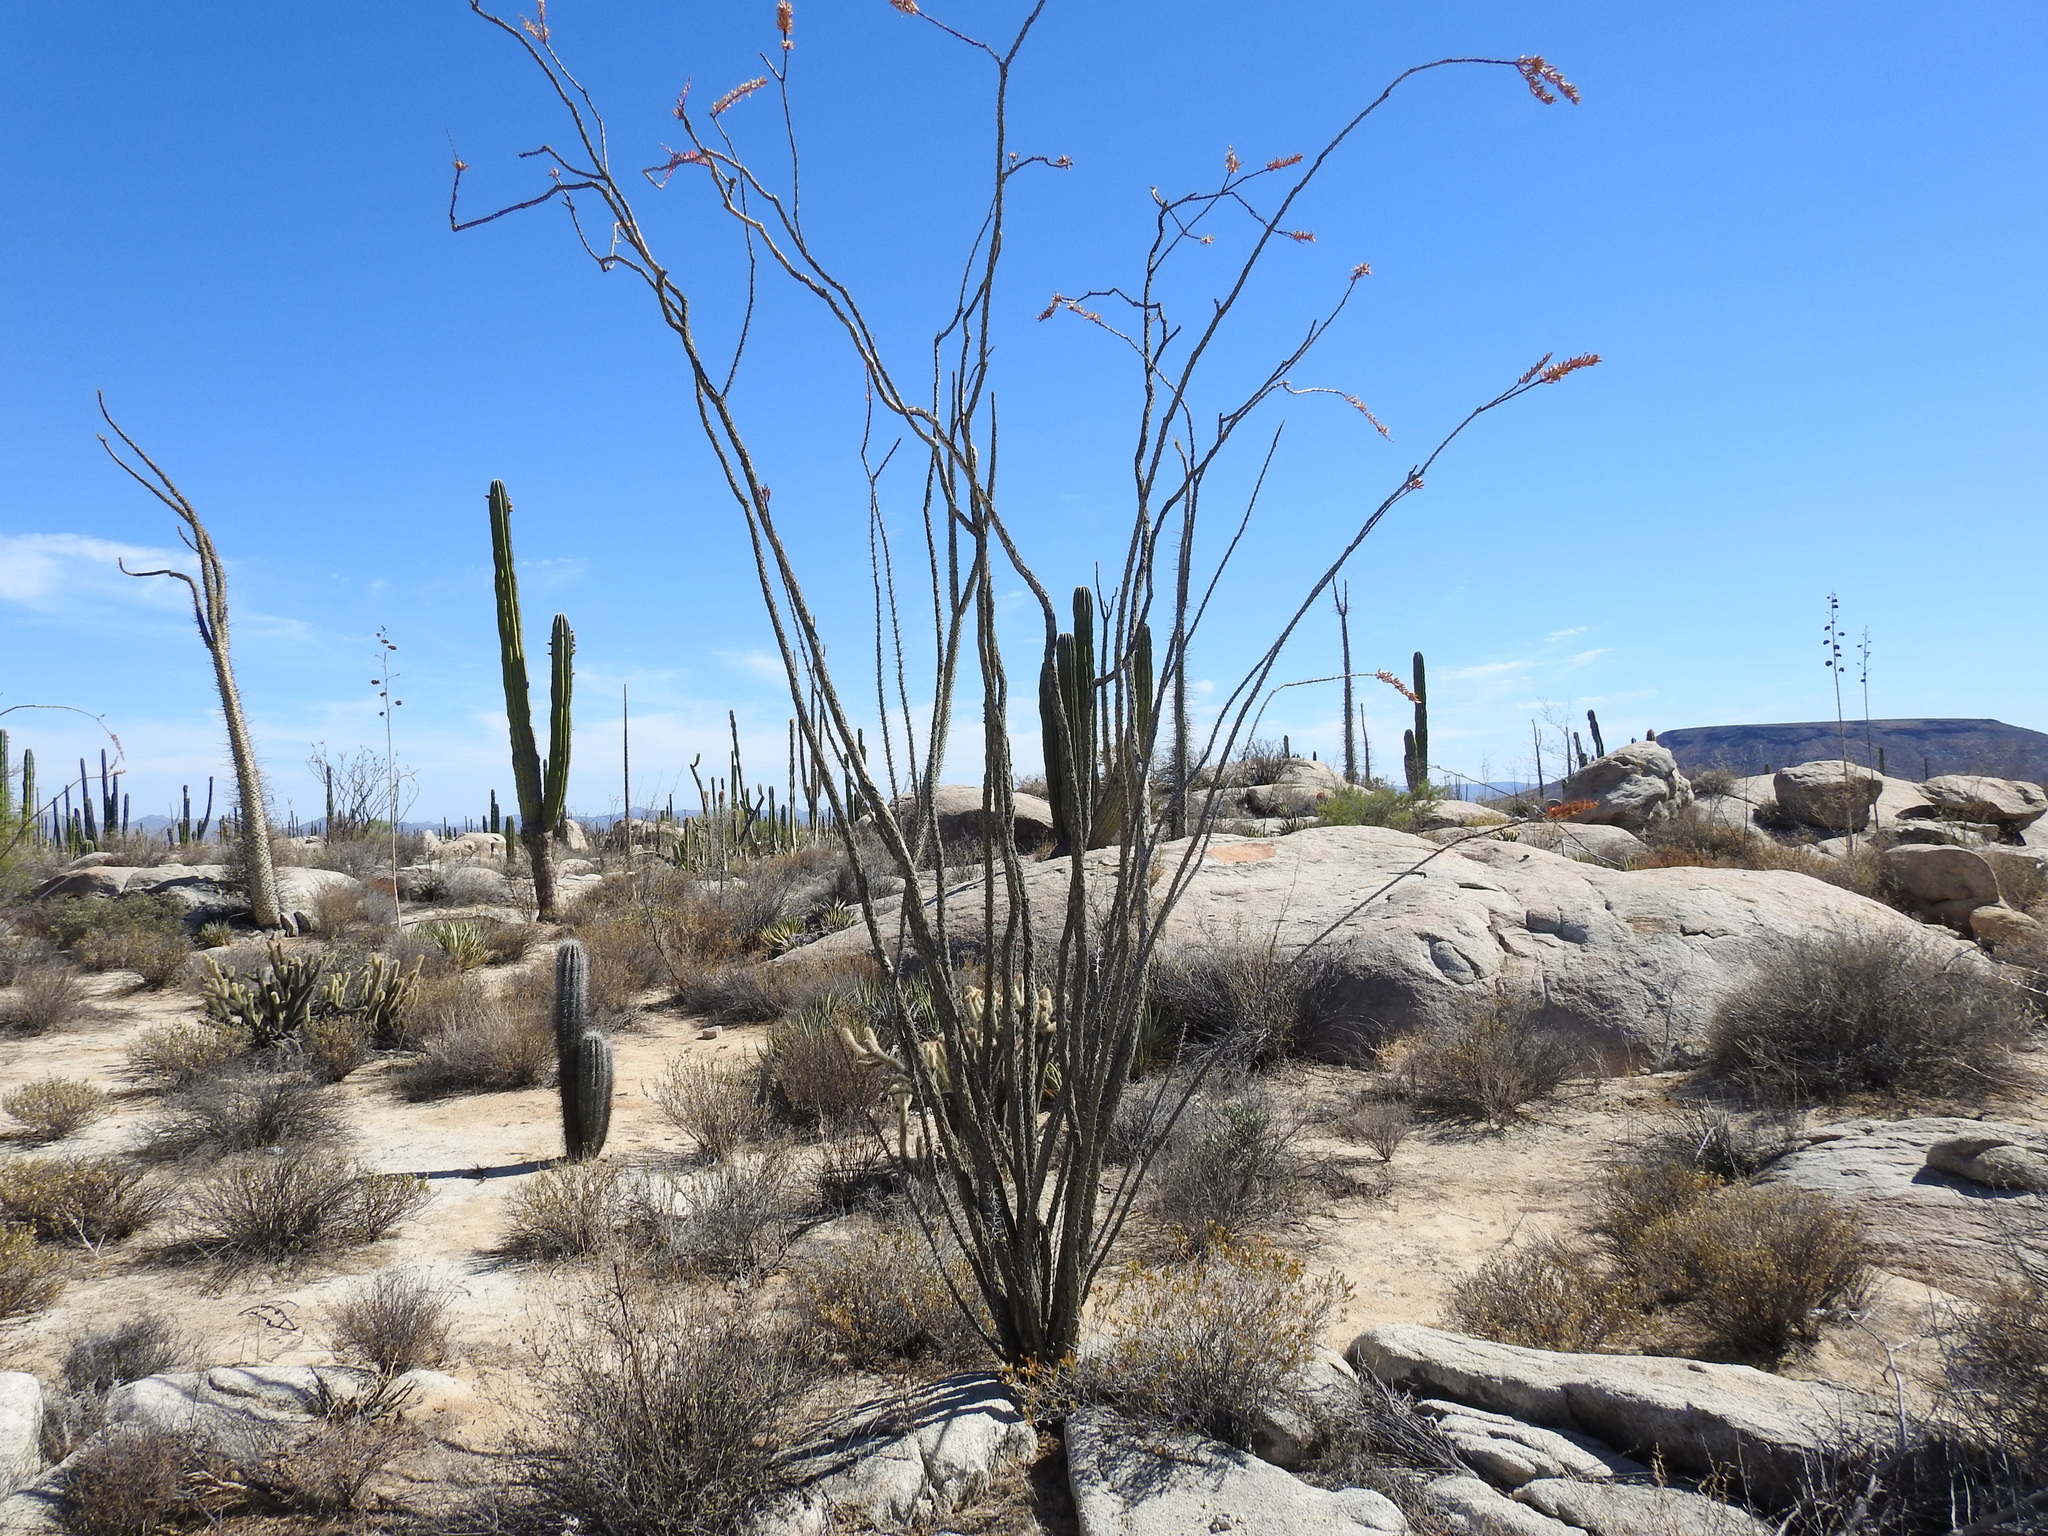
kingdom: Plantae
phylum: Tracheophyta
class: Magnoliopsida
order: Ericales
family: Fouquieriaceae
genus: Fouquieria
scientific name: Fouquieria splendens
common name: Vine-cactus
